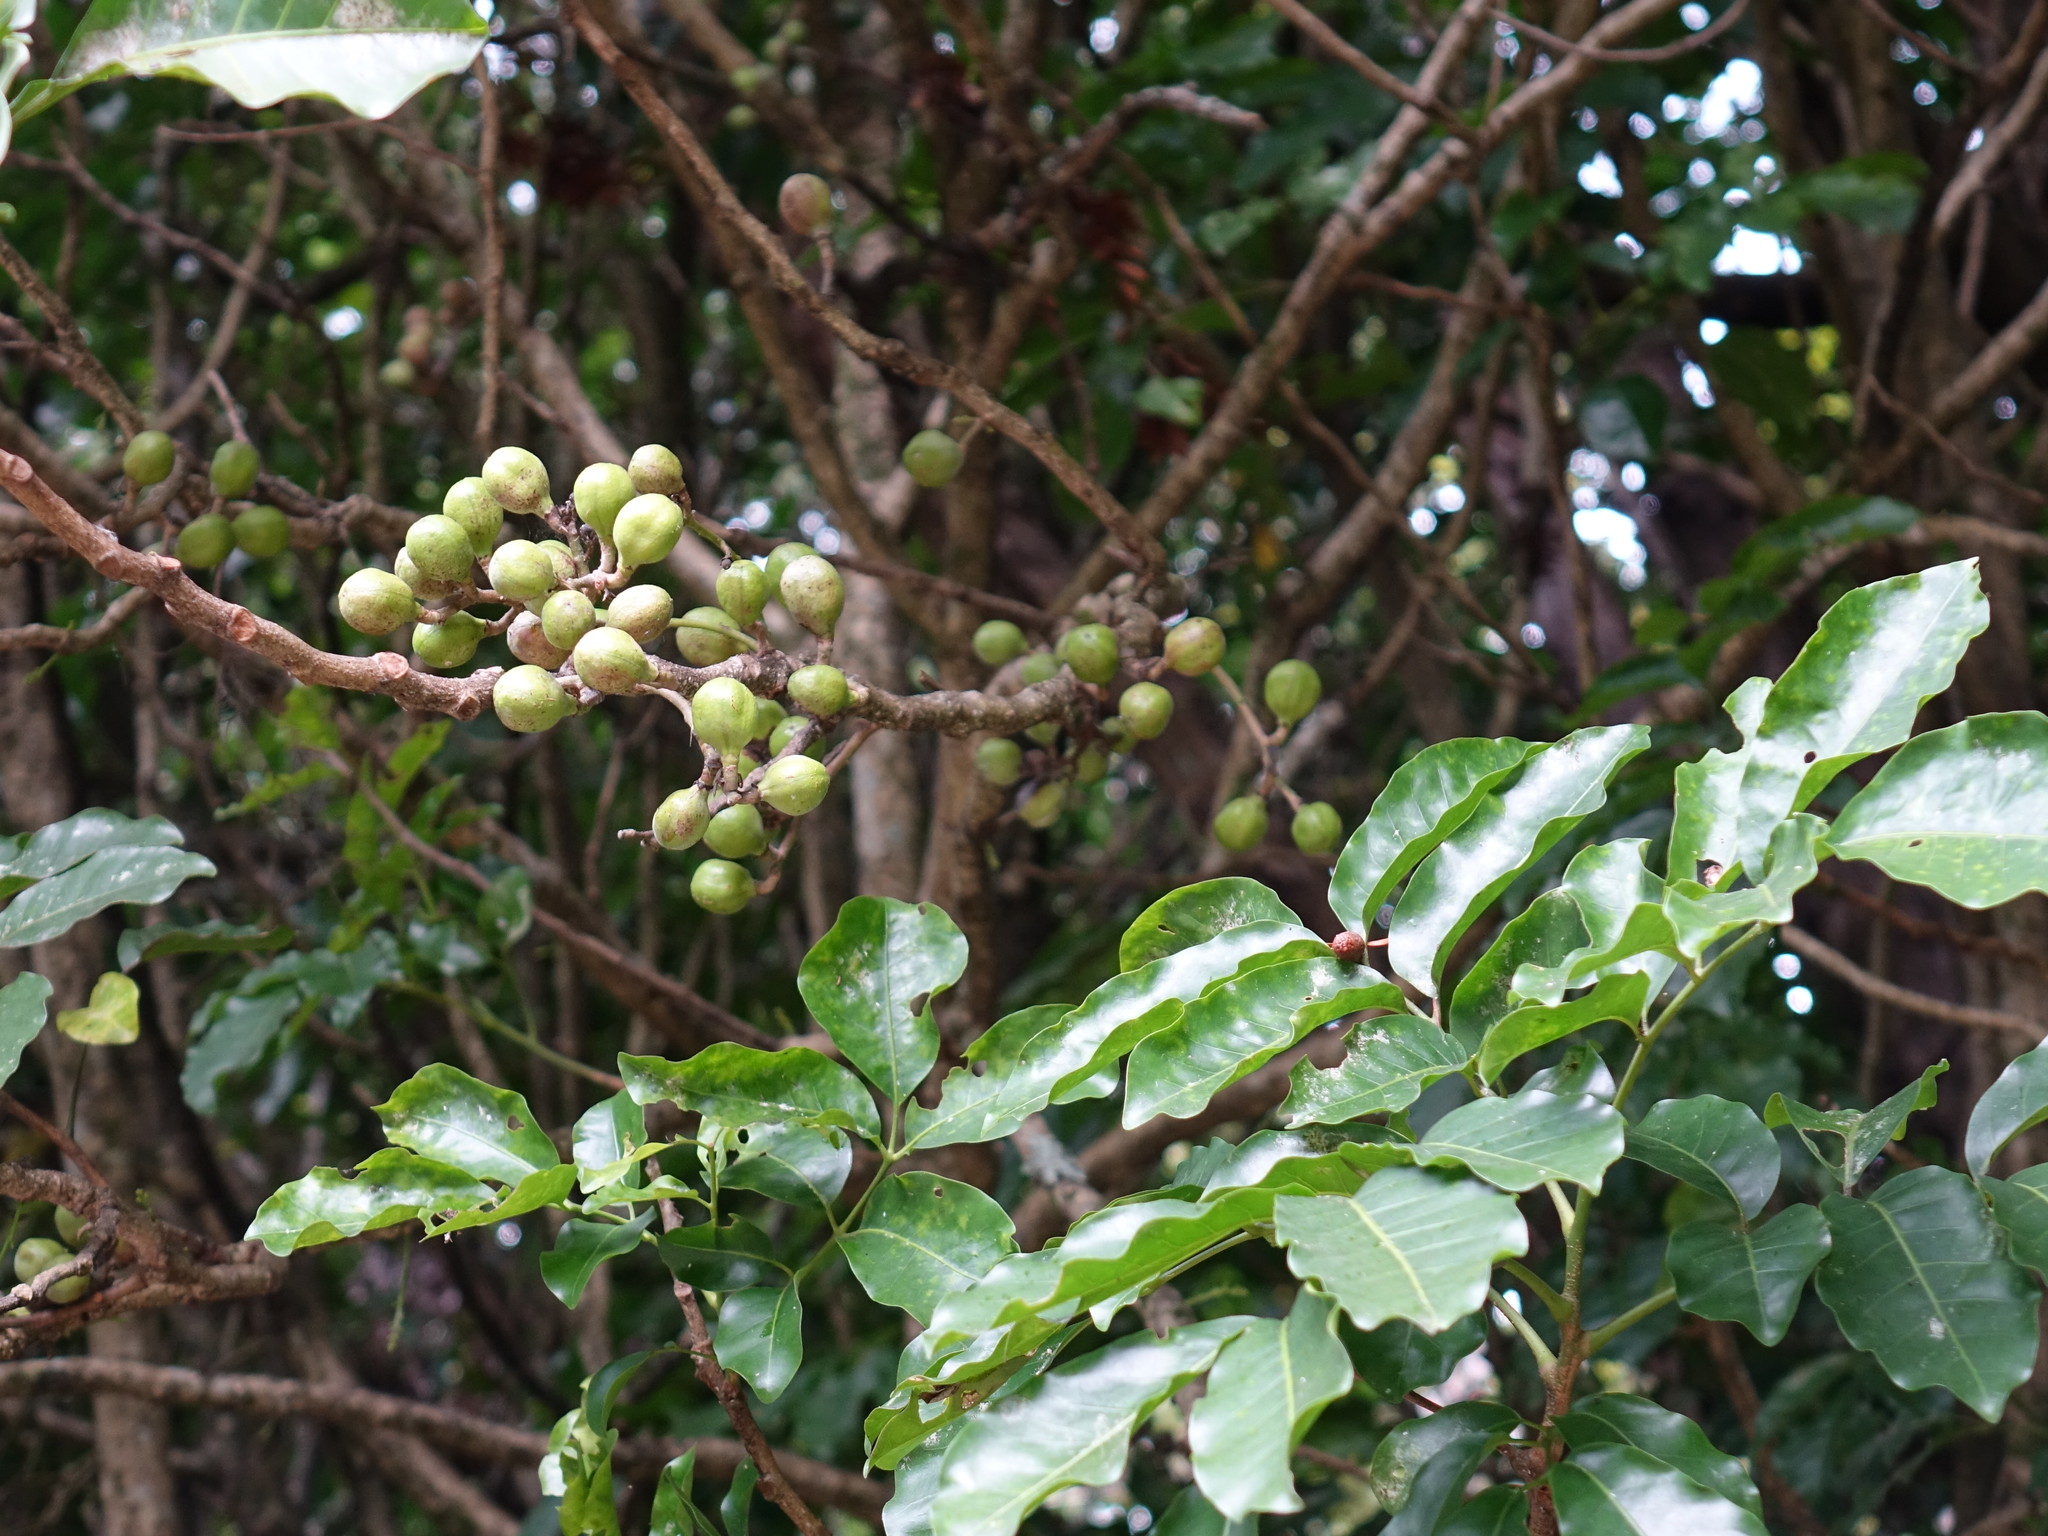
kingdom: Plantae
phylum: Tracheophyta
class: Magnoliopsida
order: Sapindales
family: Meliaceae
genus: Didymocheton
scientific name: Didymocheton spectabilis
